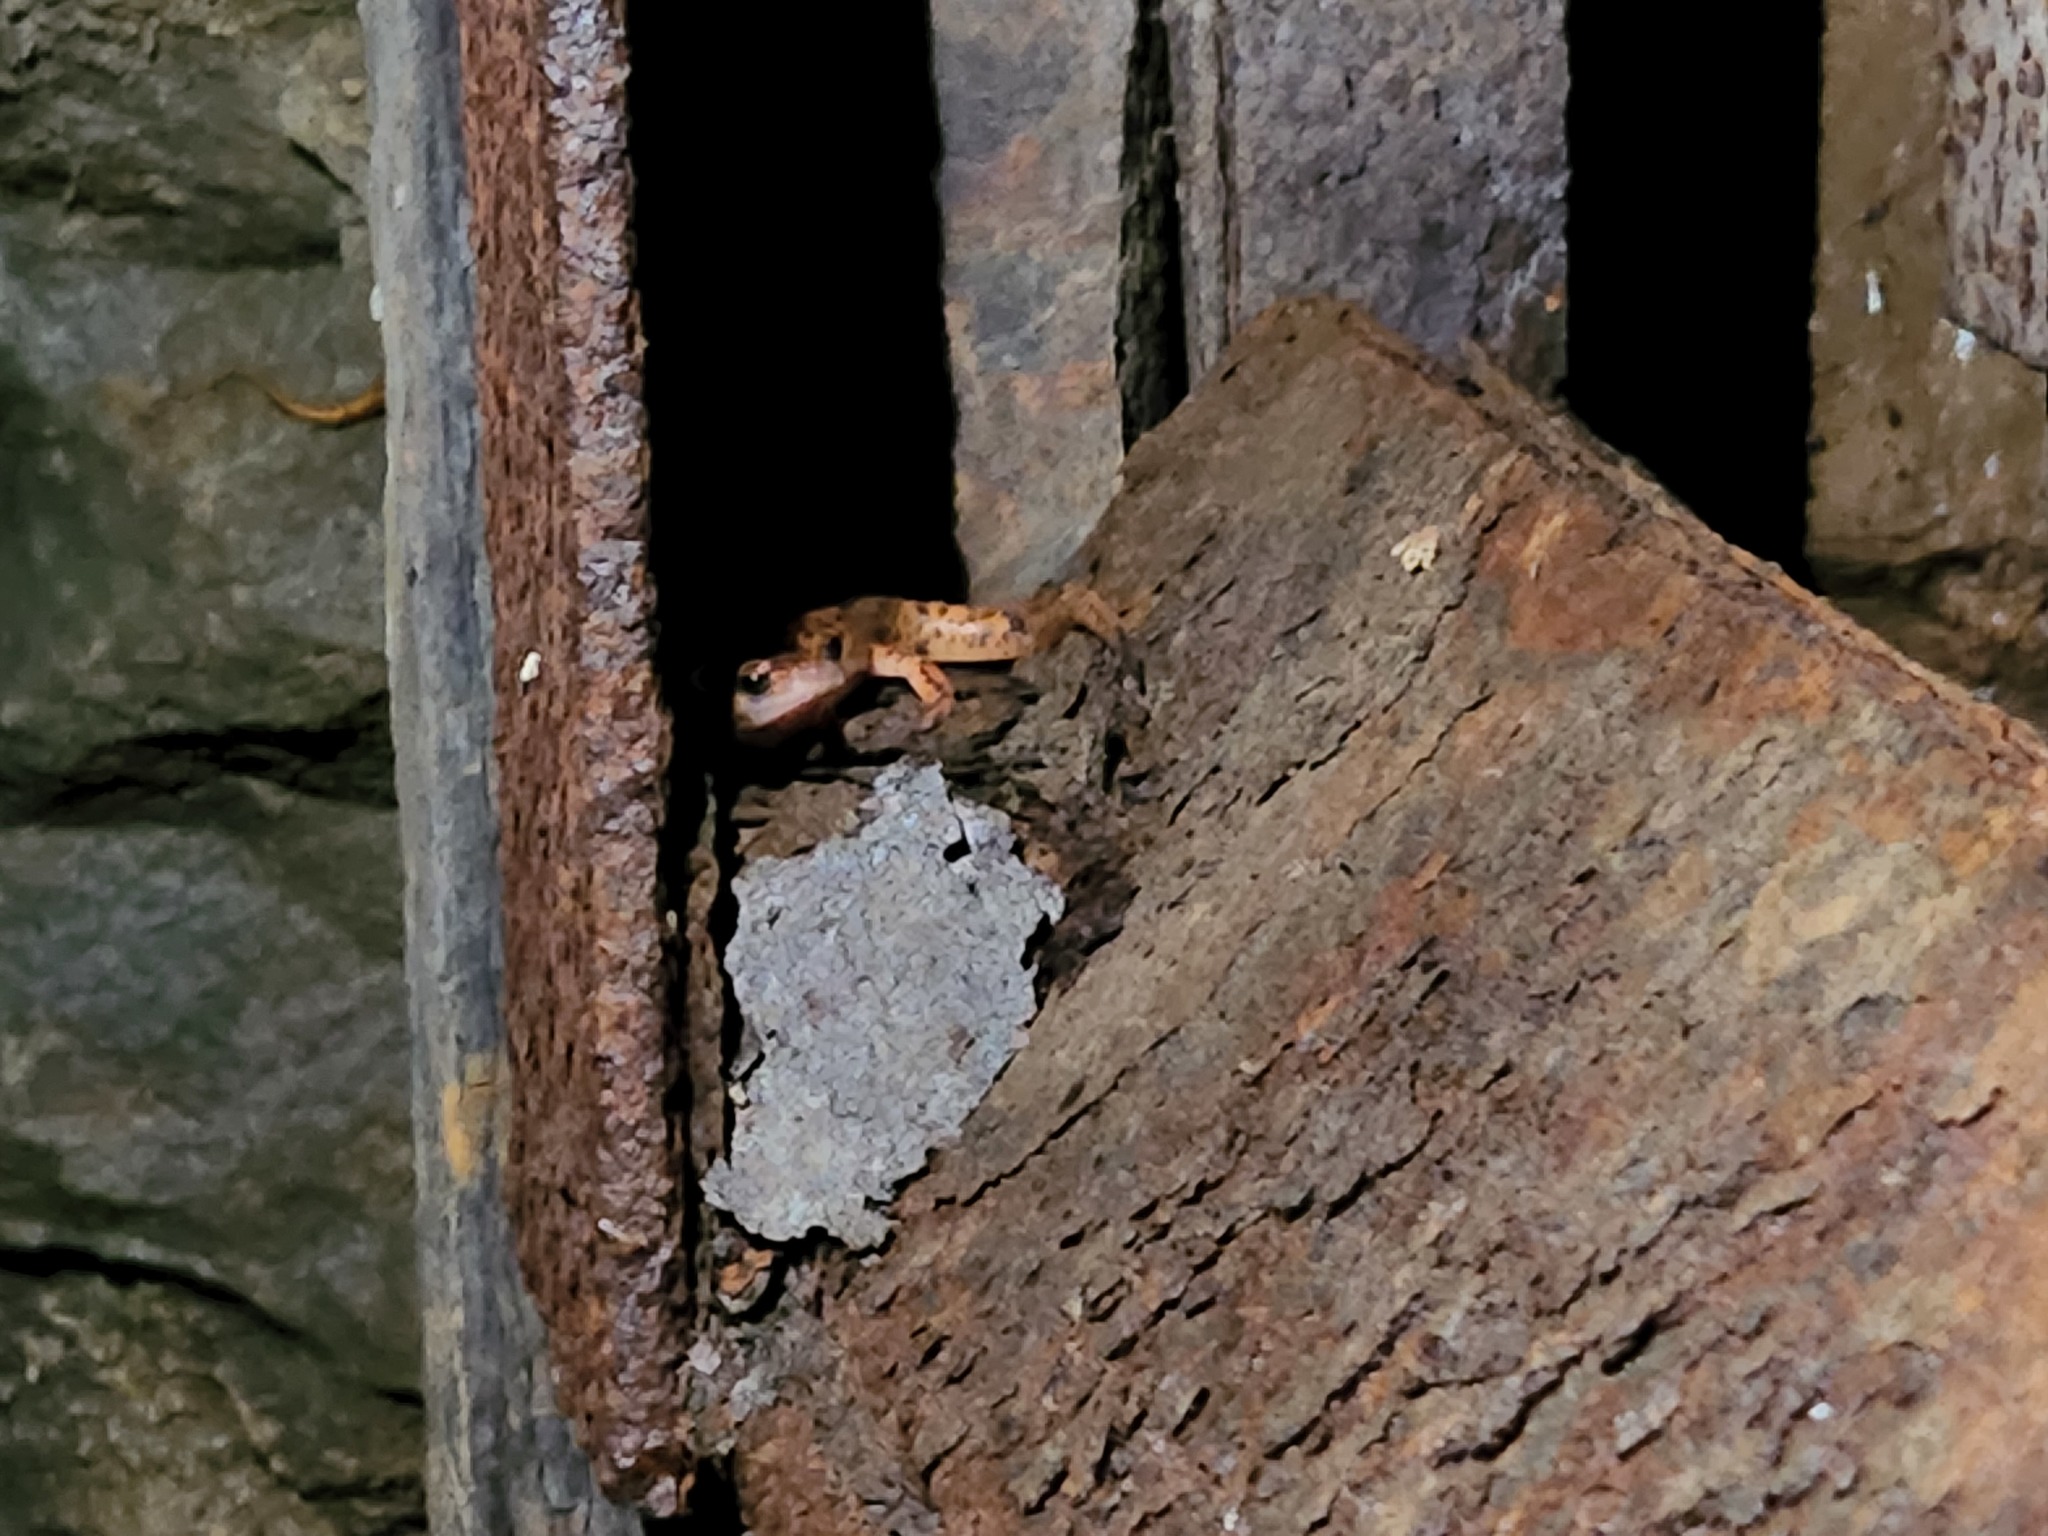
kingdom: Animalia
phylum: Chordata
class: Amphibia
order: Caudata
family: Plethodontidae
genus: Eurycea
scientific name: Eurycea lucifuga
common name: Cave salamander
